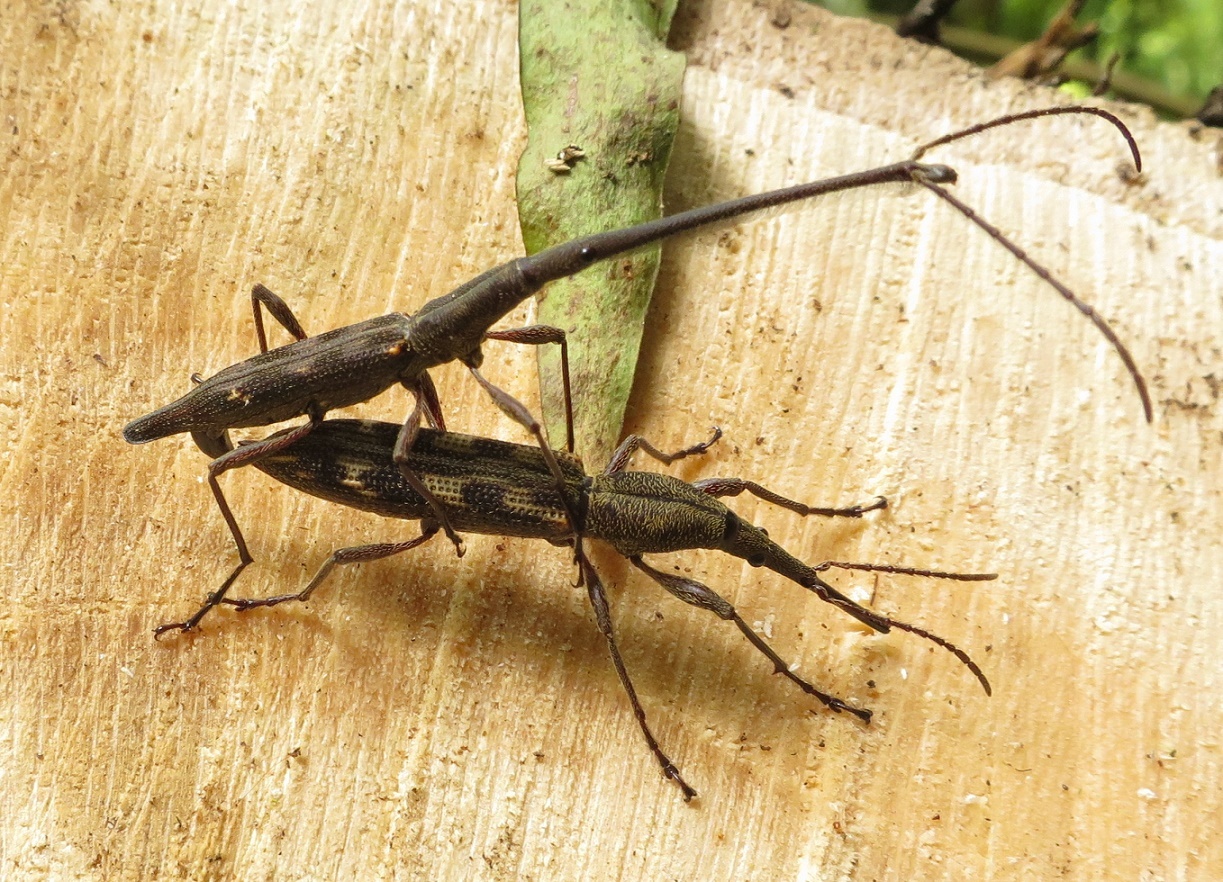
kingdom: Animalia
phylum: Arthropoda
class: Insecta
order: Coleoptera
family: Brentidae
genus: Lasiorhynchus
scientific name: Lasiorhynchus barbicornis
